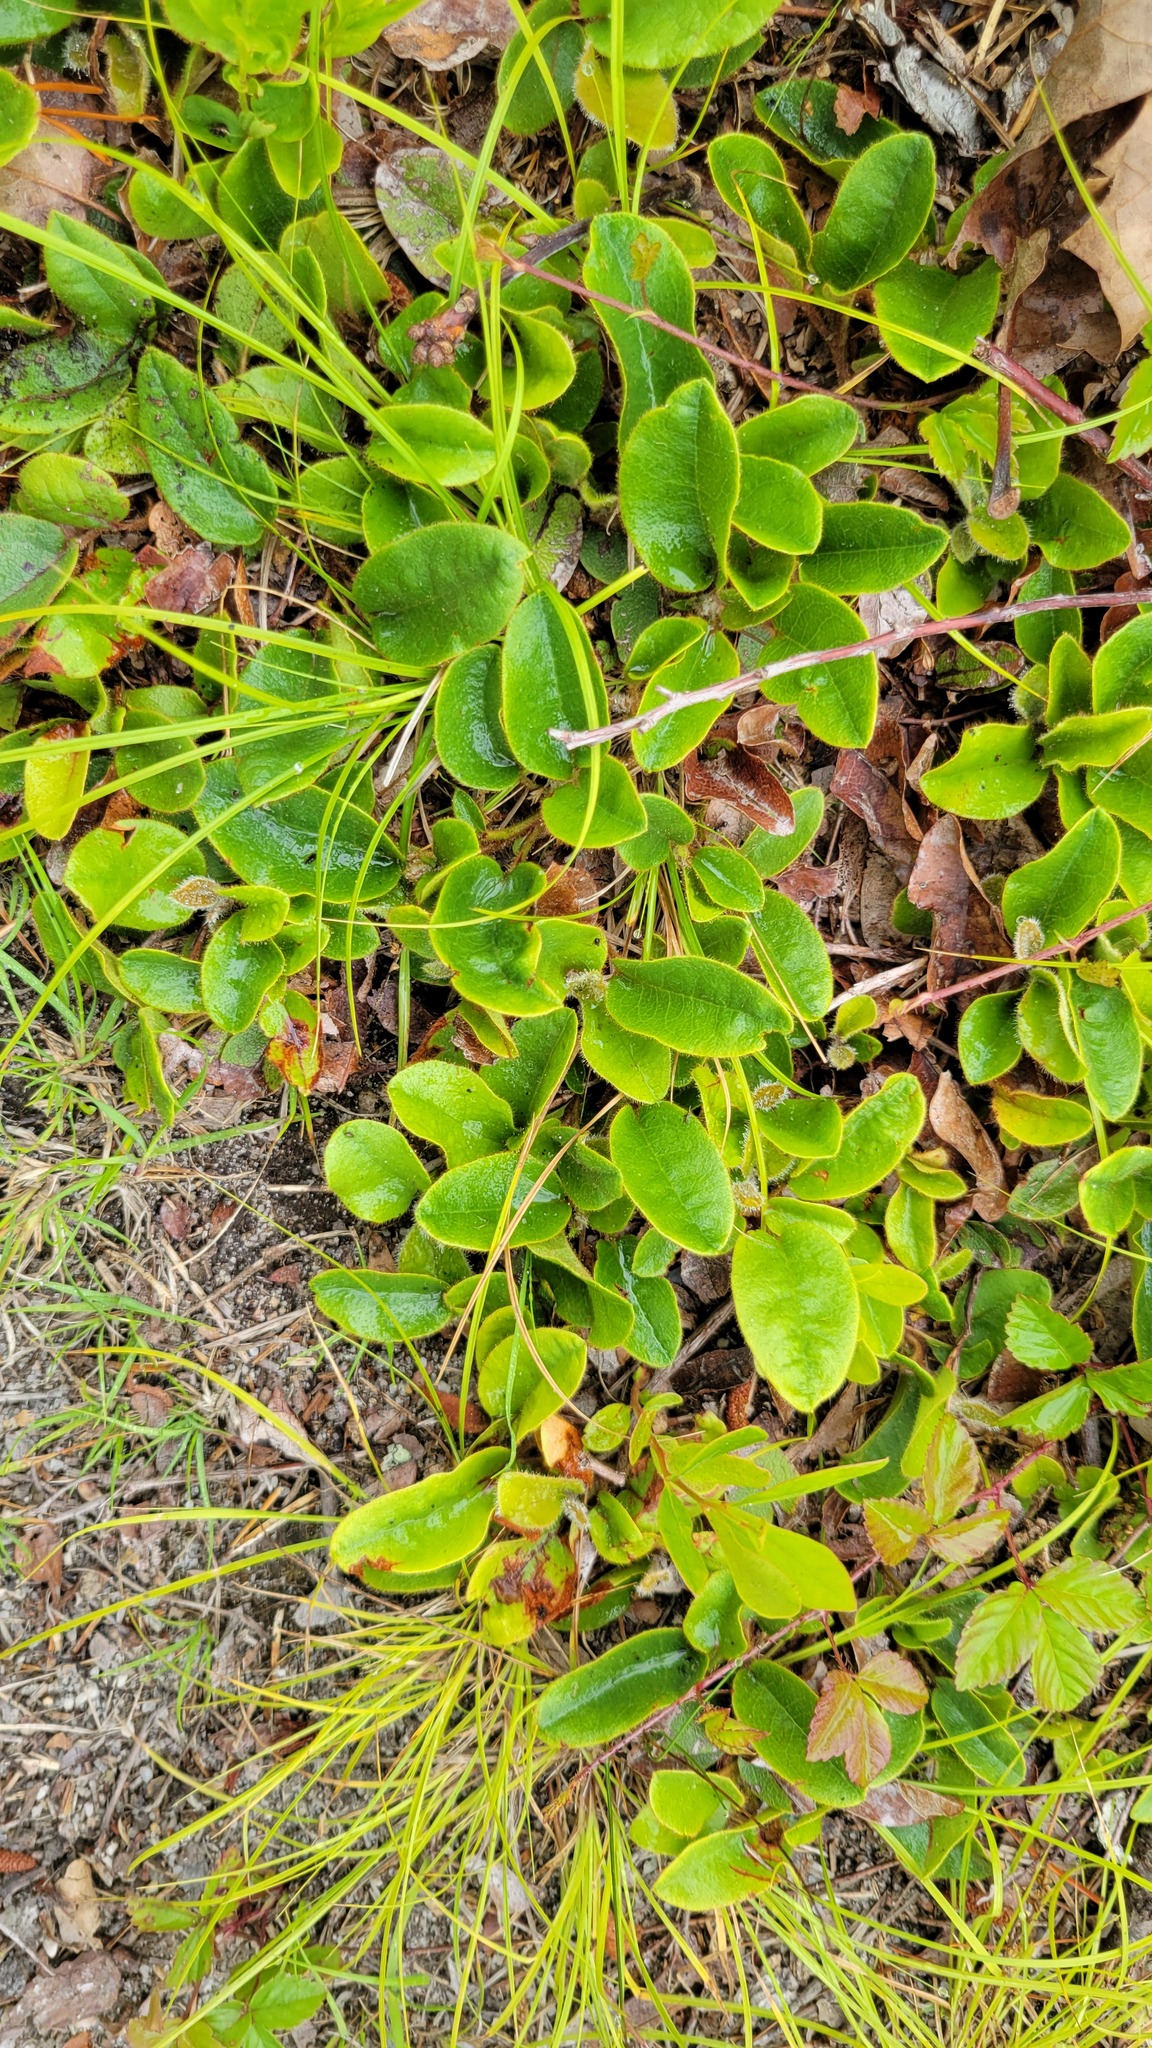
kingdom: Plantae
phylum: Tracheophyta
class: Magnoliopsida
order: Ericales
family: Ericaceae
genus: Epigaea
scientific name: Epigaea repens
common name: Gravelroot
